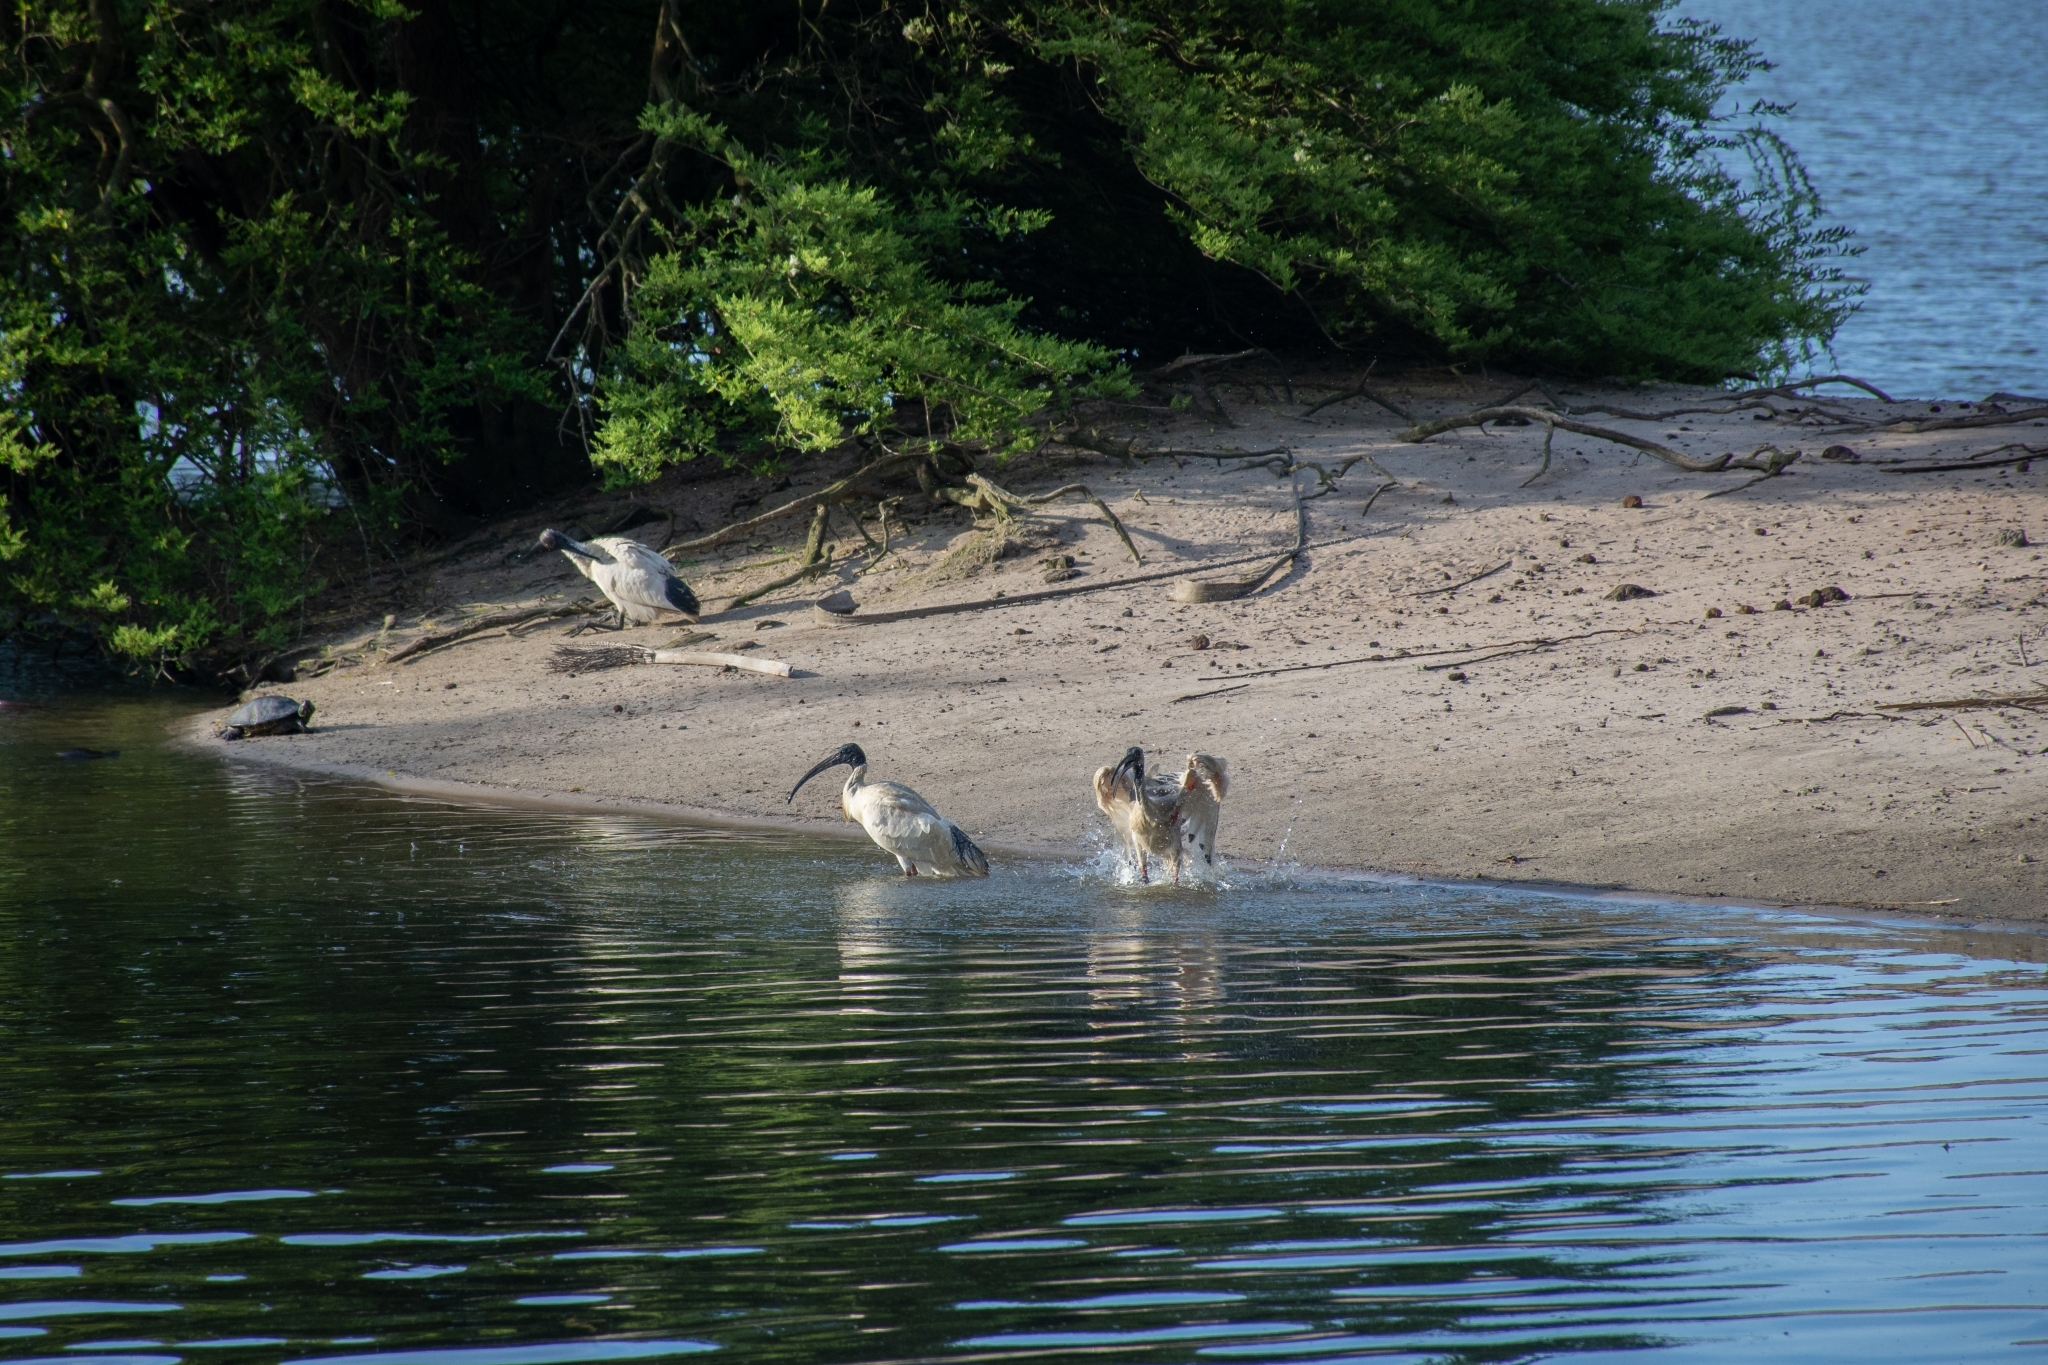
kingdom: Animalia
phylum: Chordata
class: Aves
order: Pelecaniformes
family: Threskiornithidae
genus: Threskiornis
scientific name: Threskiornis molucca
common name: Australian white ibis
